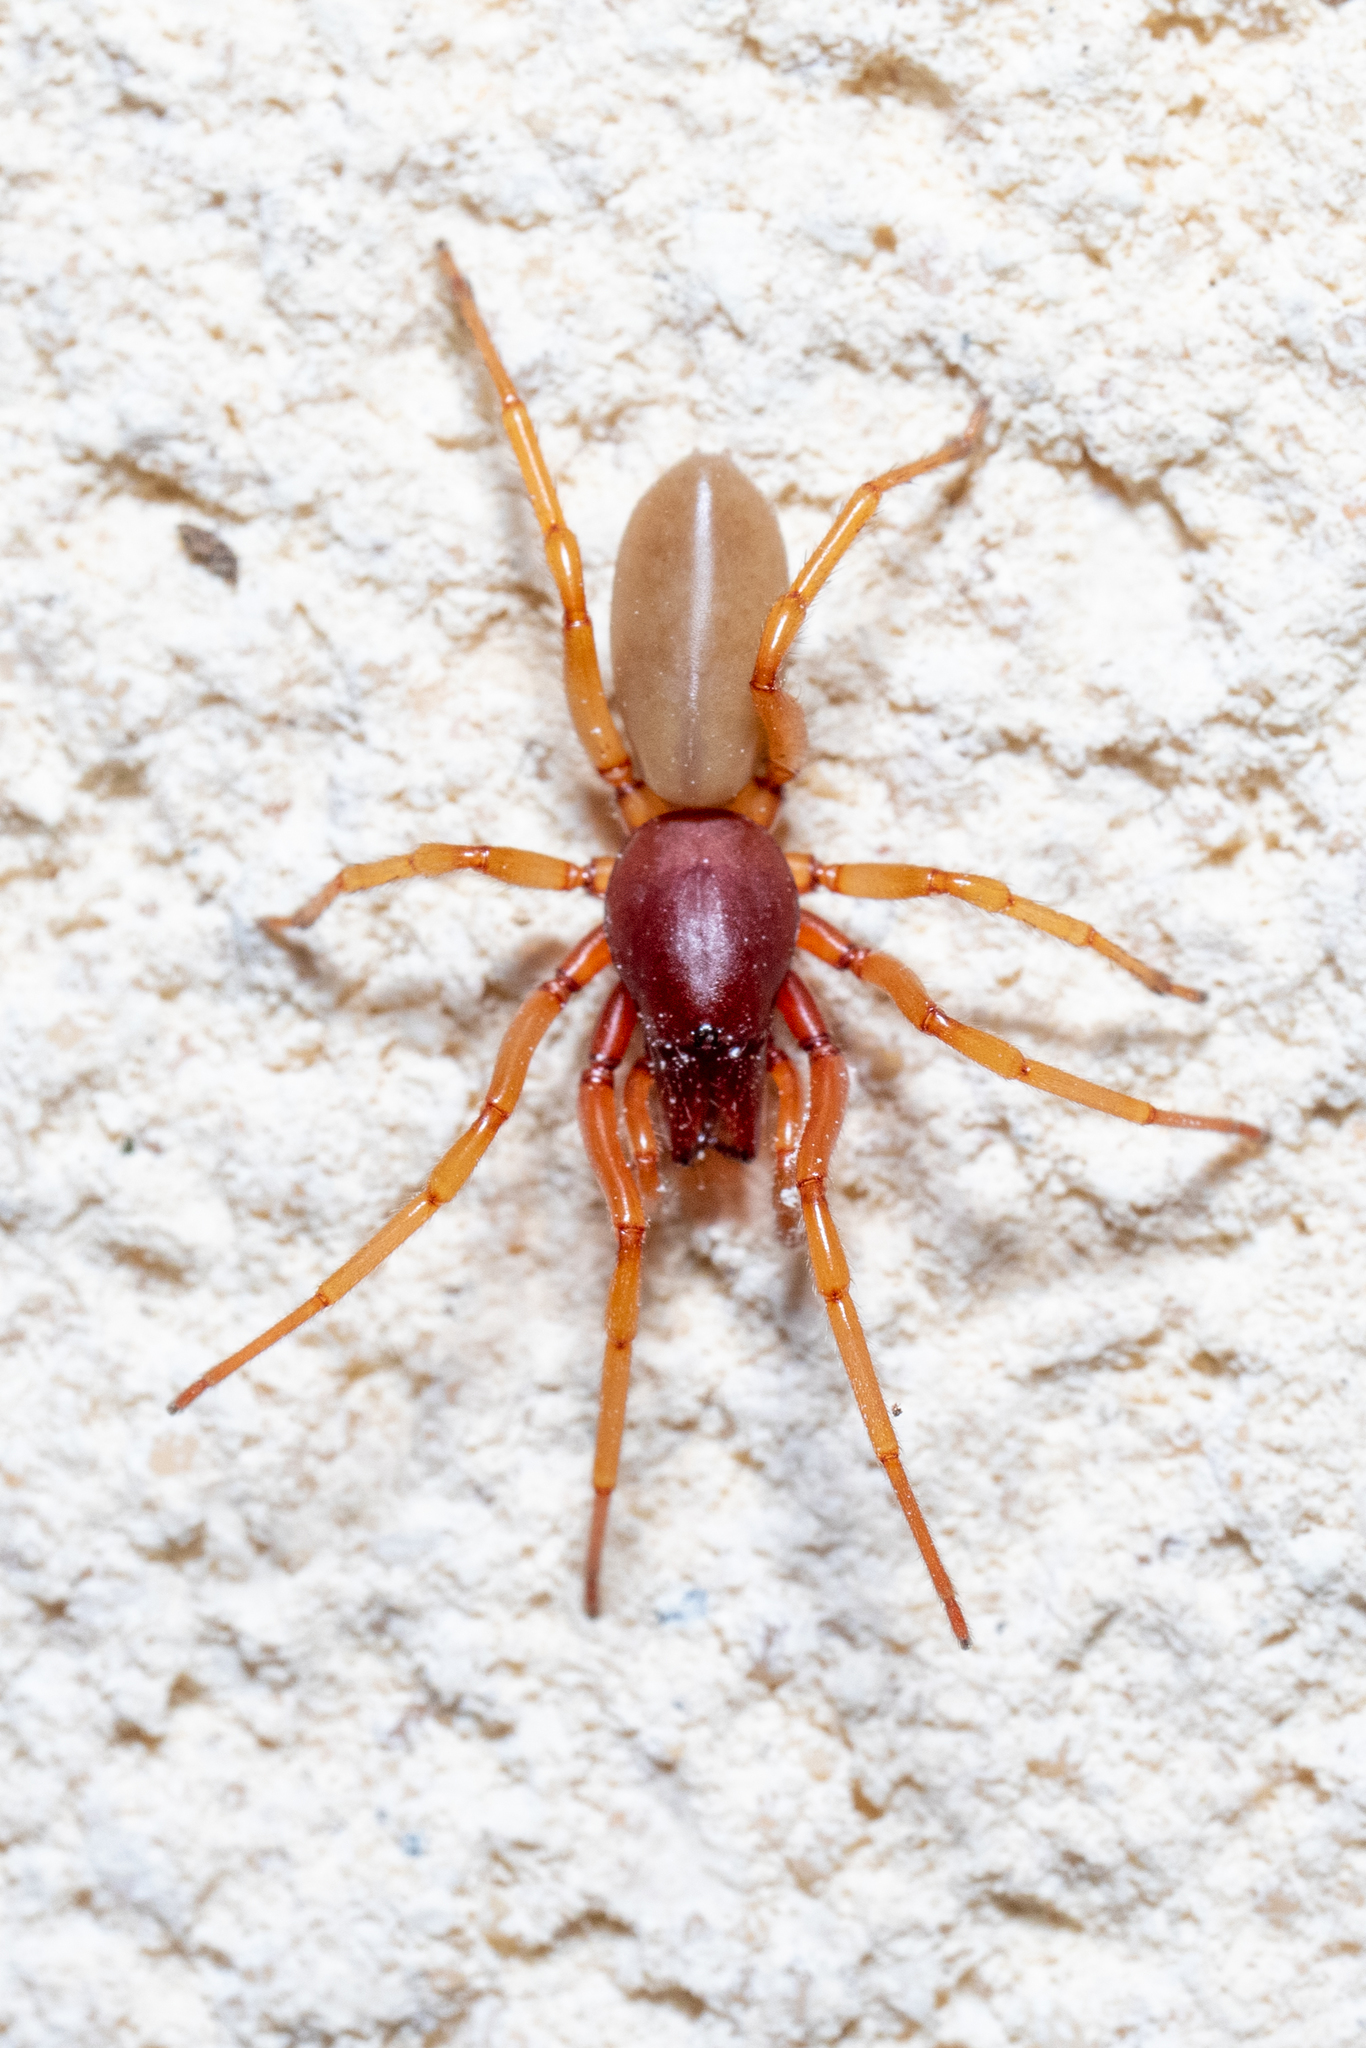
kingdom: Animalia
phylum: Arthropoda
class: Arachnida
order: Araneae
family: Dysderidae
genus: Dysdera
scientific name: Dysdera crocata
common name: Woodlouse spider
